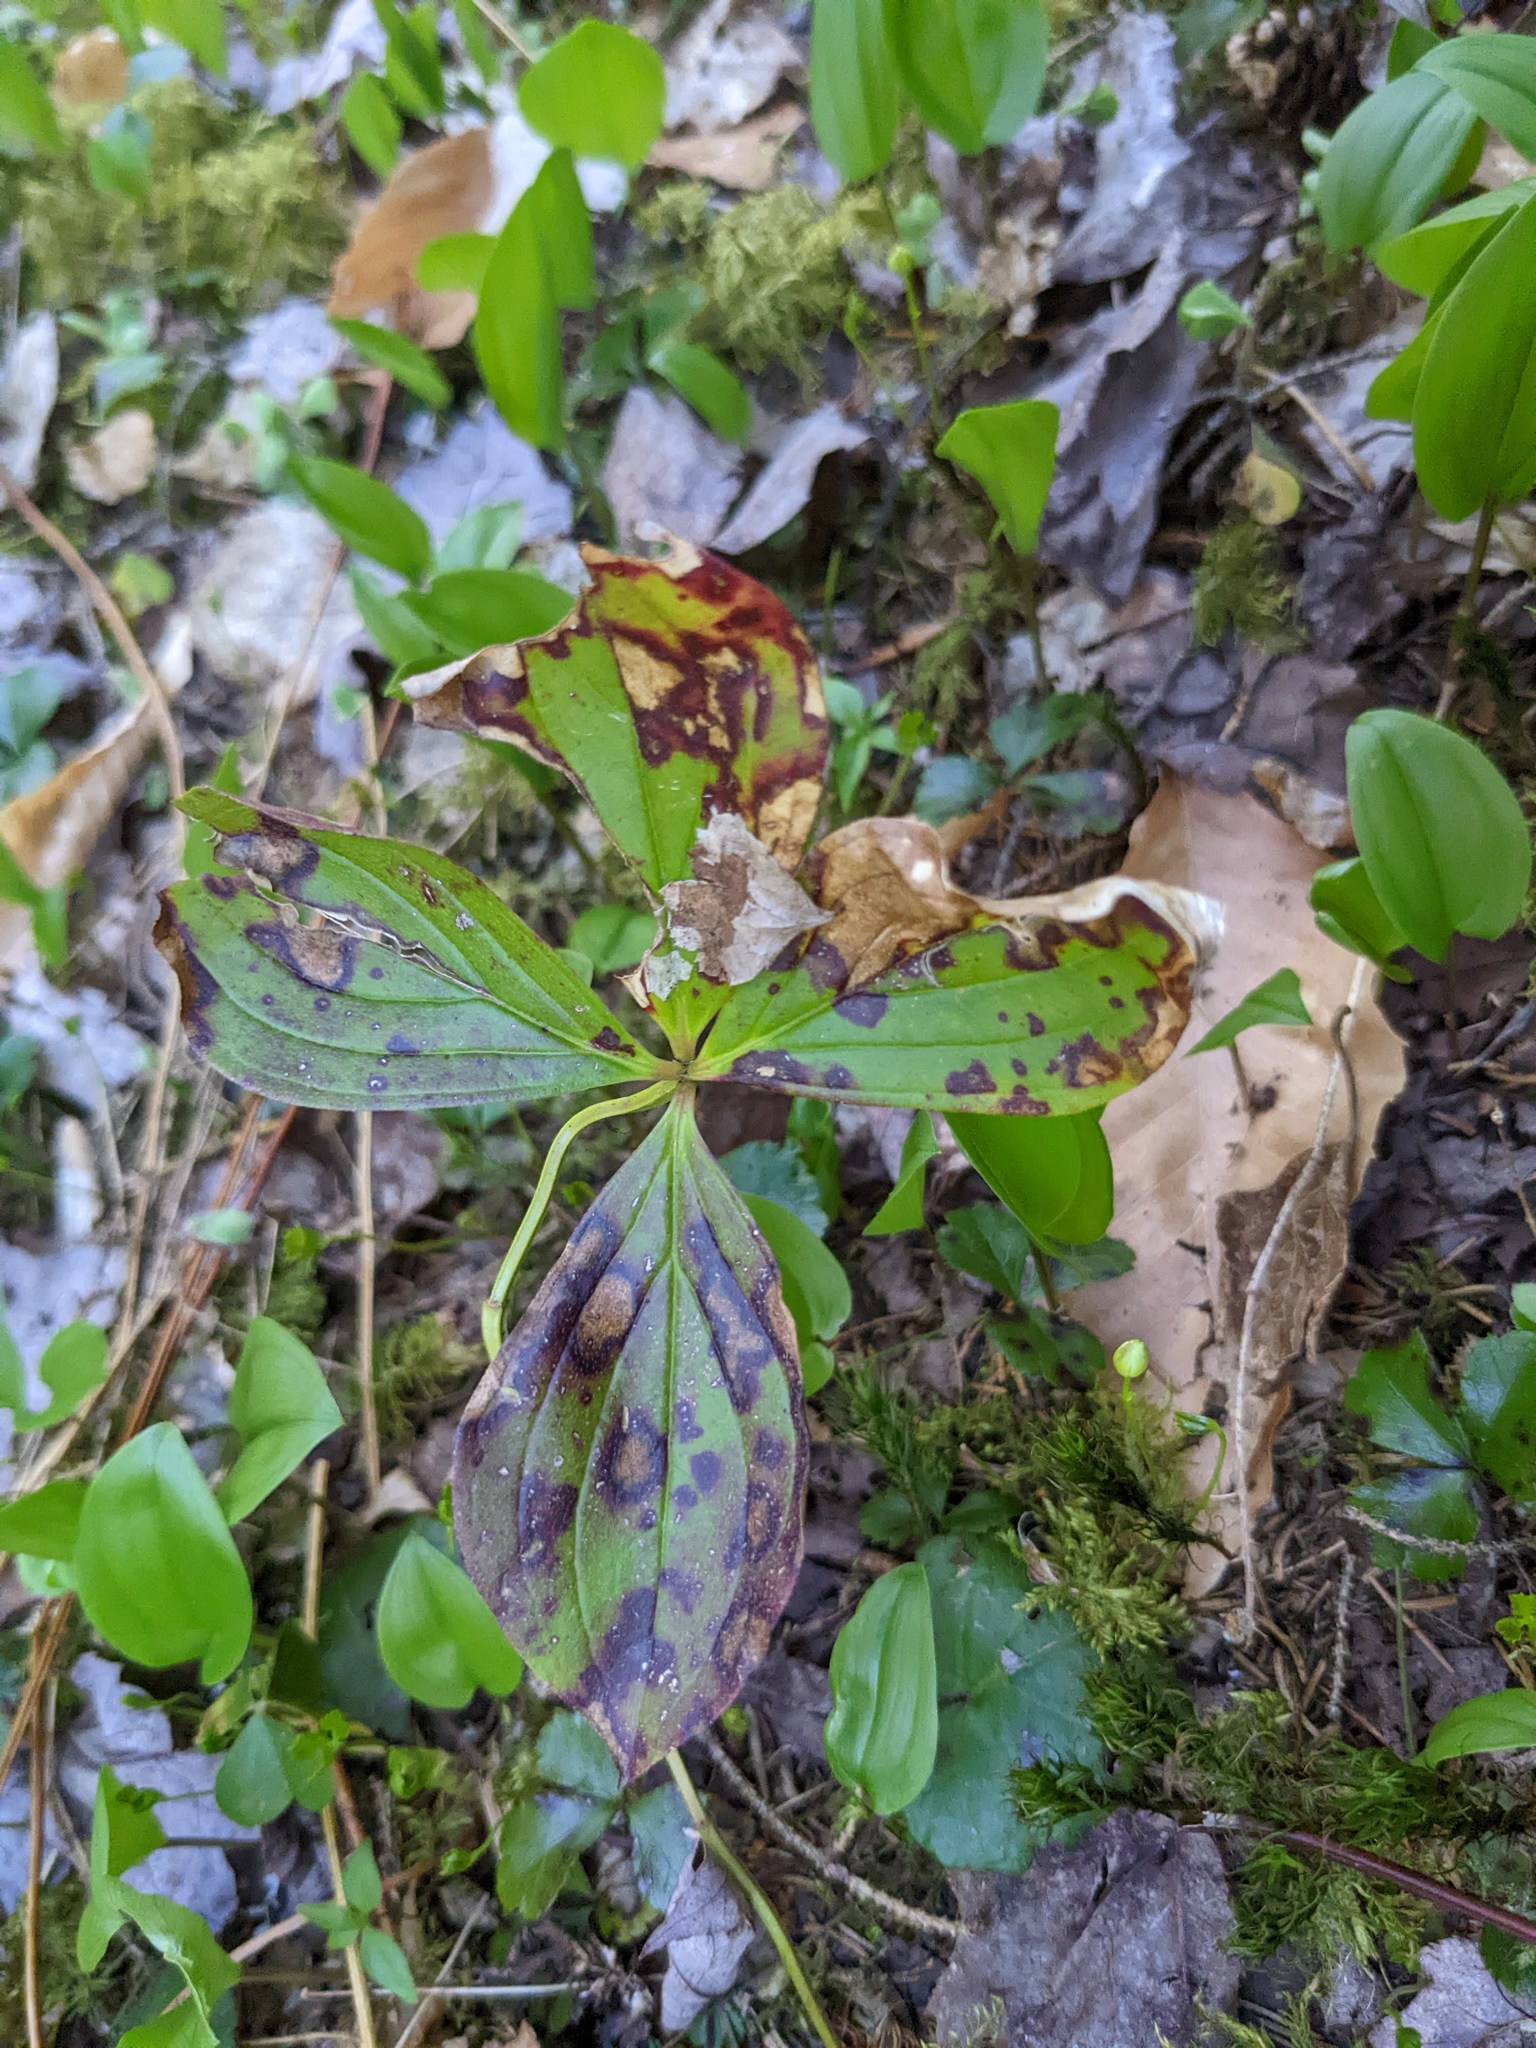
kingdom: Plantae
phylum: Tracheophyta
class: Magnoliopsida
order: Cornales
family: Cornaceae
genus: Cornus
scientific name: Cornus canadensis
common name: Creeping dogwood
